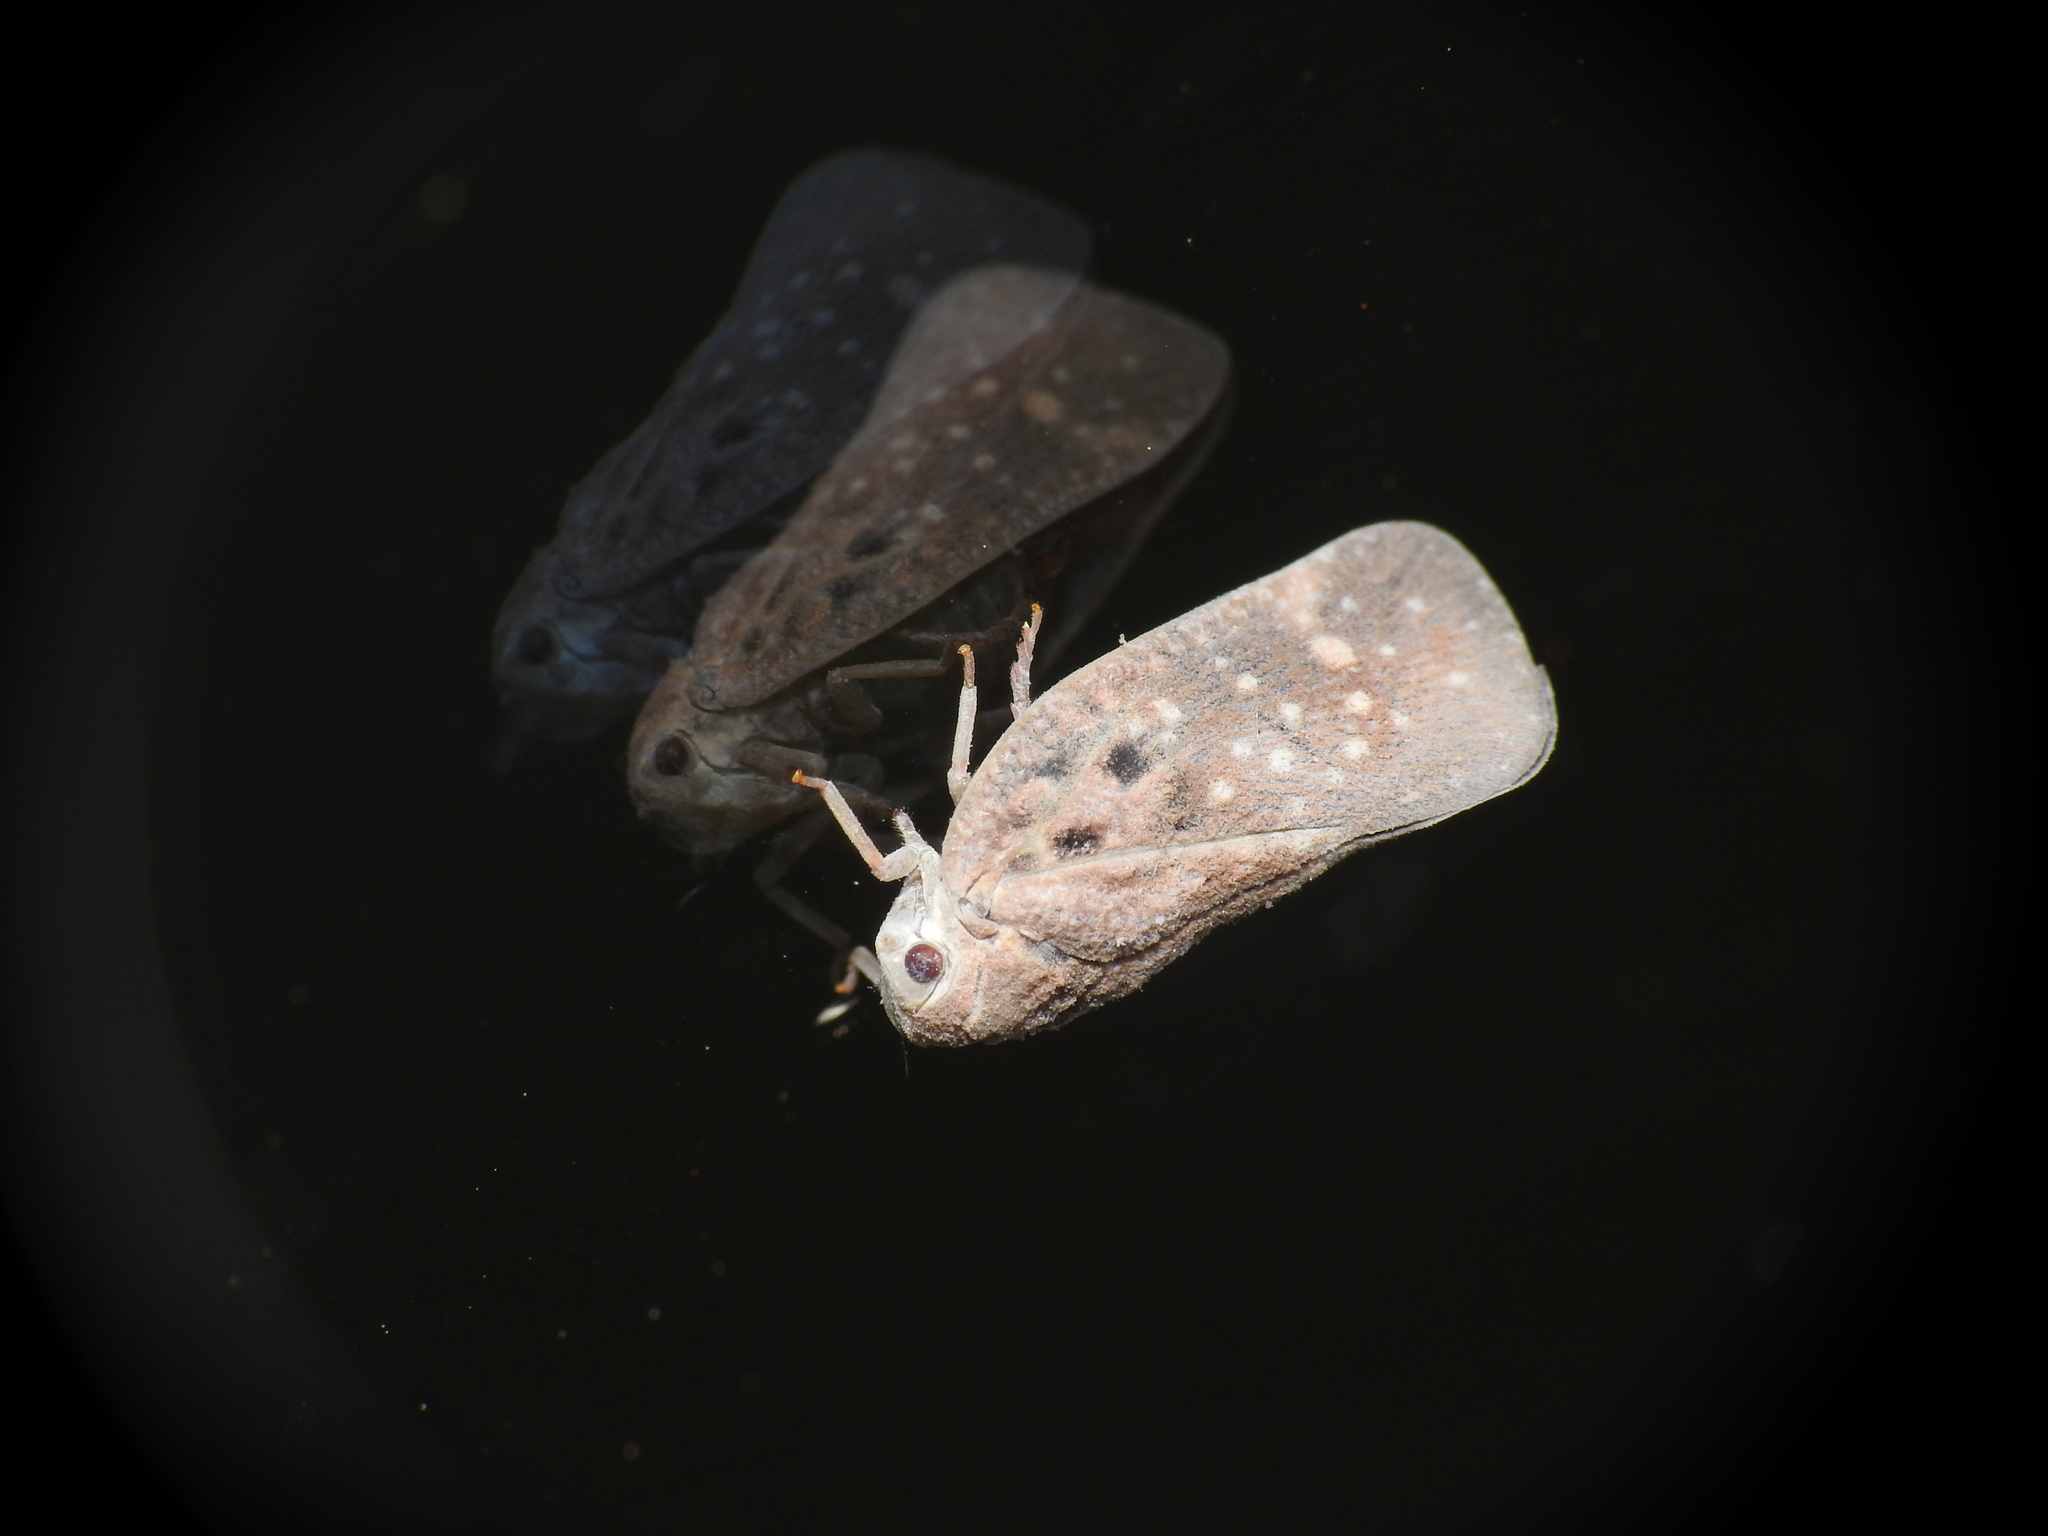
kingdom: Animalia
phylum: Arthropoda
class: Insecta
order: Hemiptera
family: Flatidae
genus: Metcalfa
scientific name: Metcalfa pruinosa
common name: Citrus flatid planthopper
